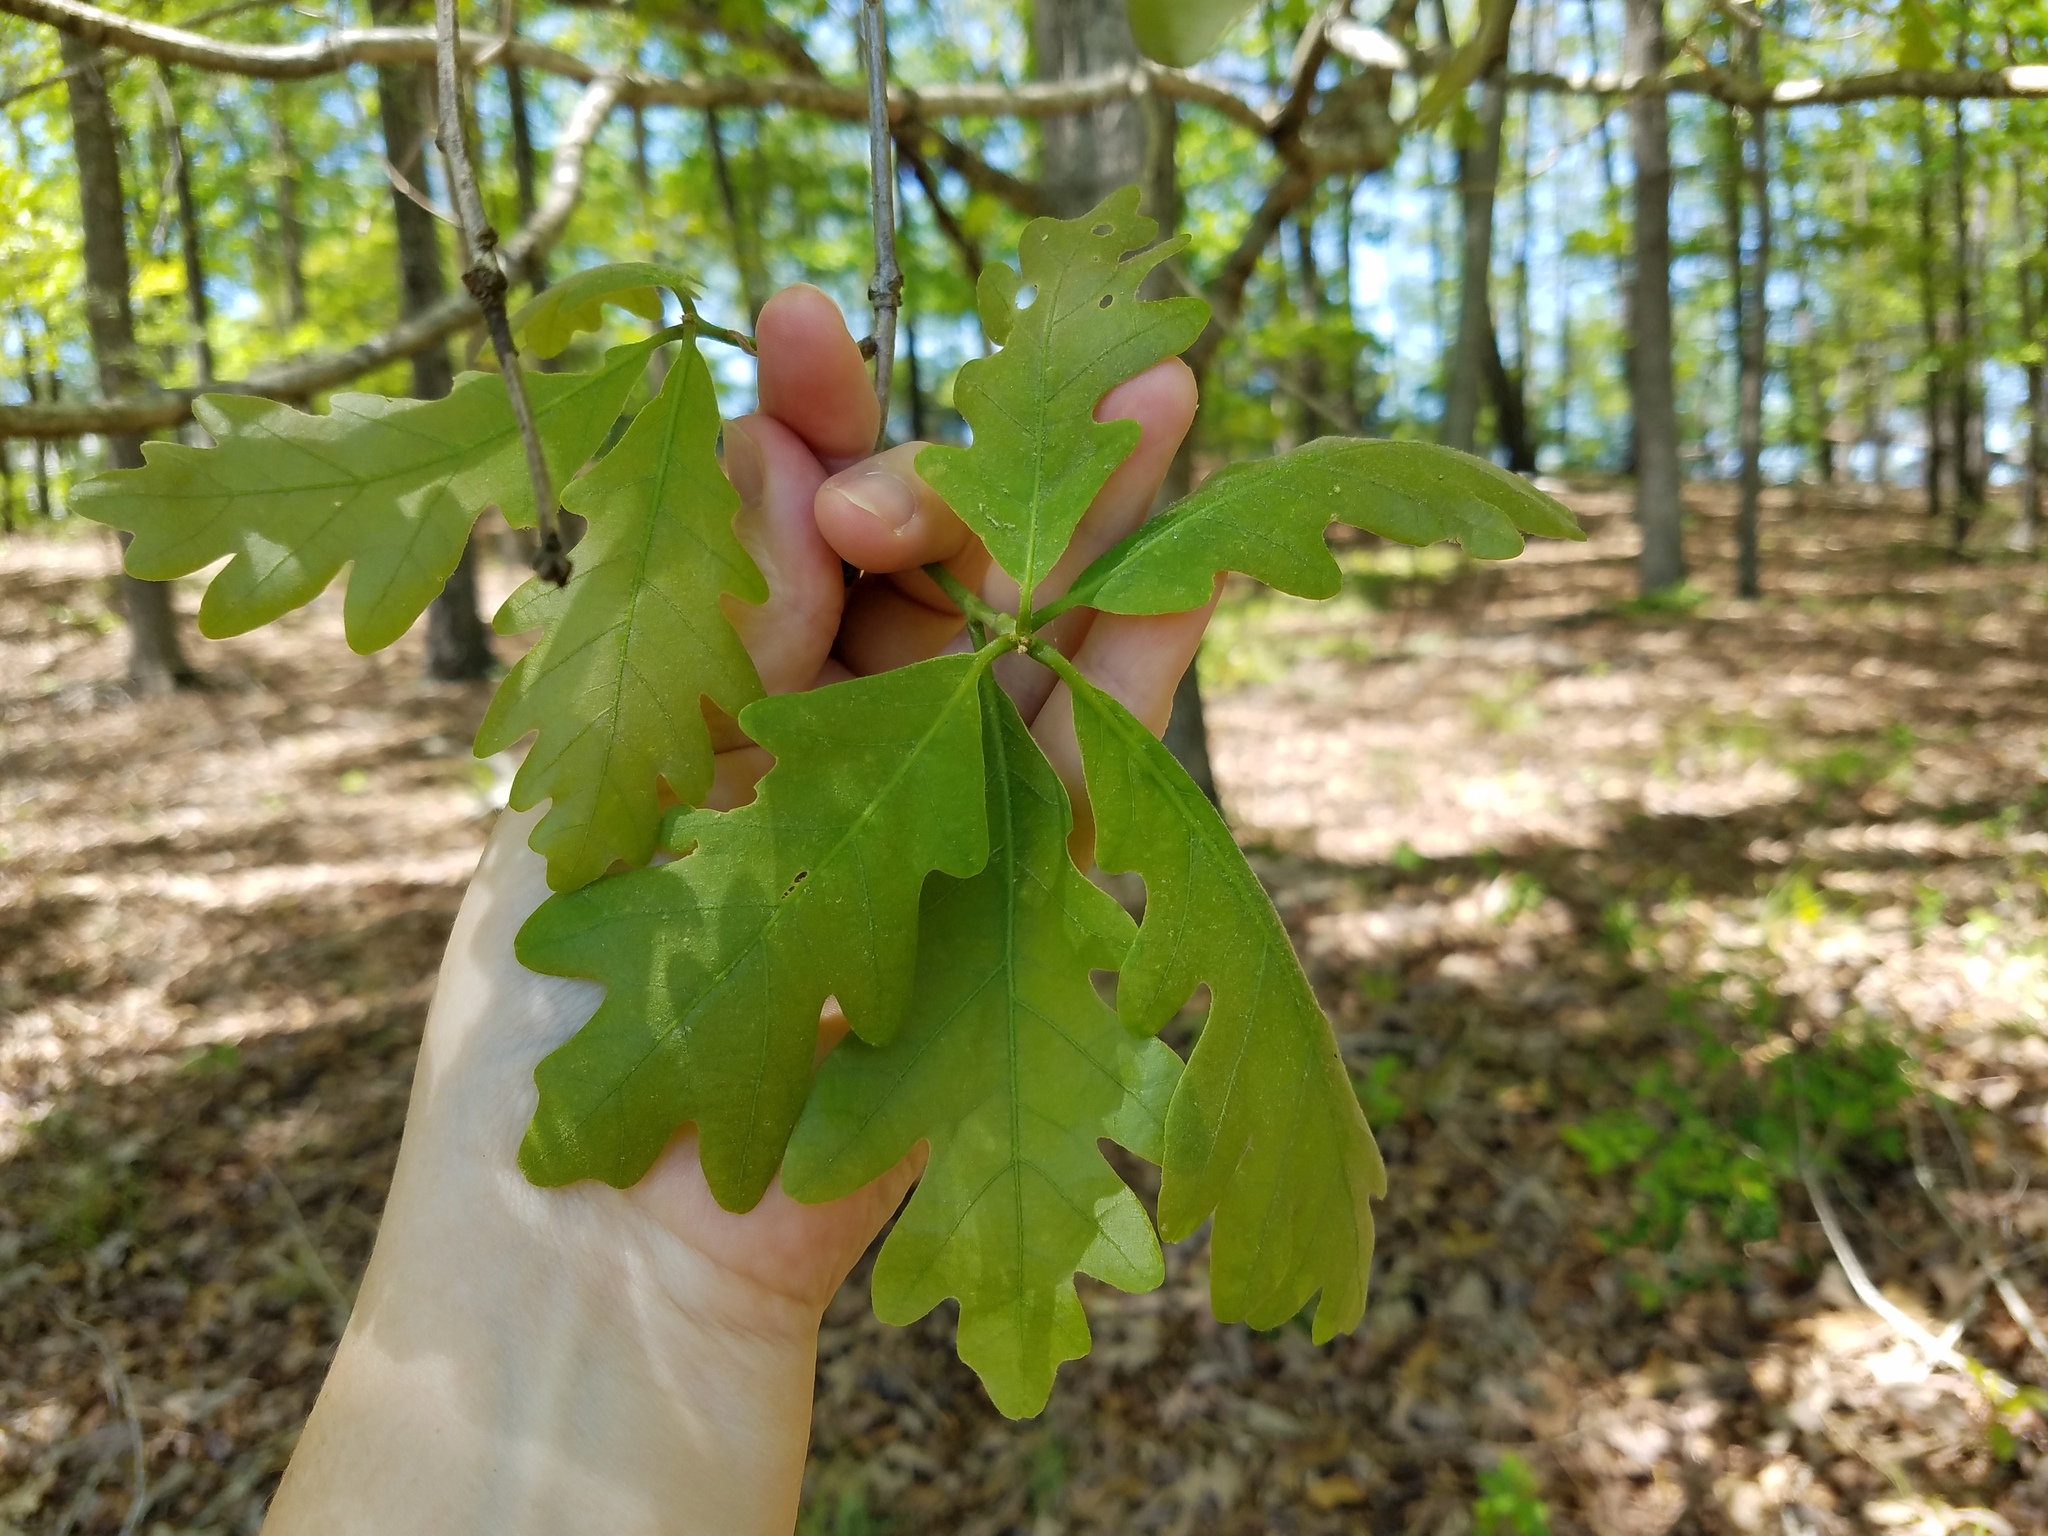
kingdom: Plantae
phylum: Tracheophyta
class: Magnoliopsida
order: Fagales
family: Fagaceae
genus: Quercus
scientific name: Quercus alba
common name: White oak
